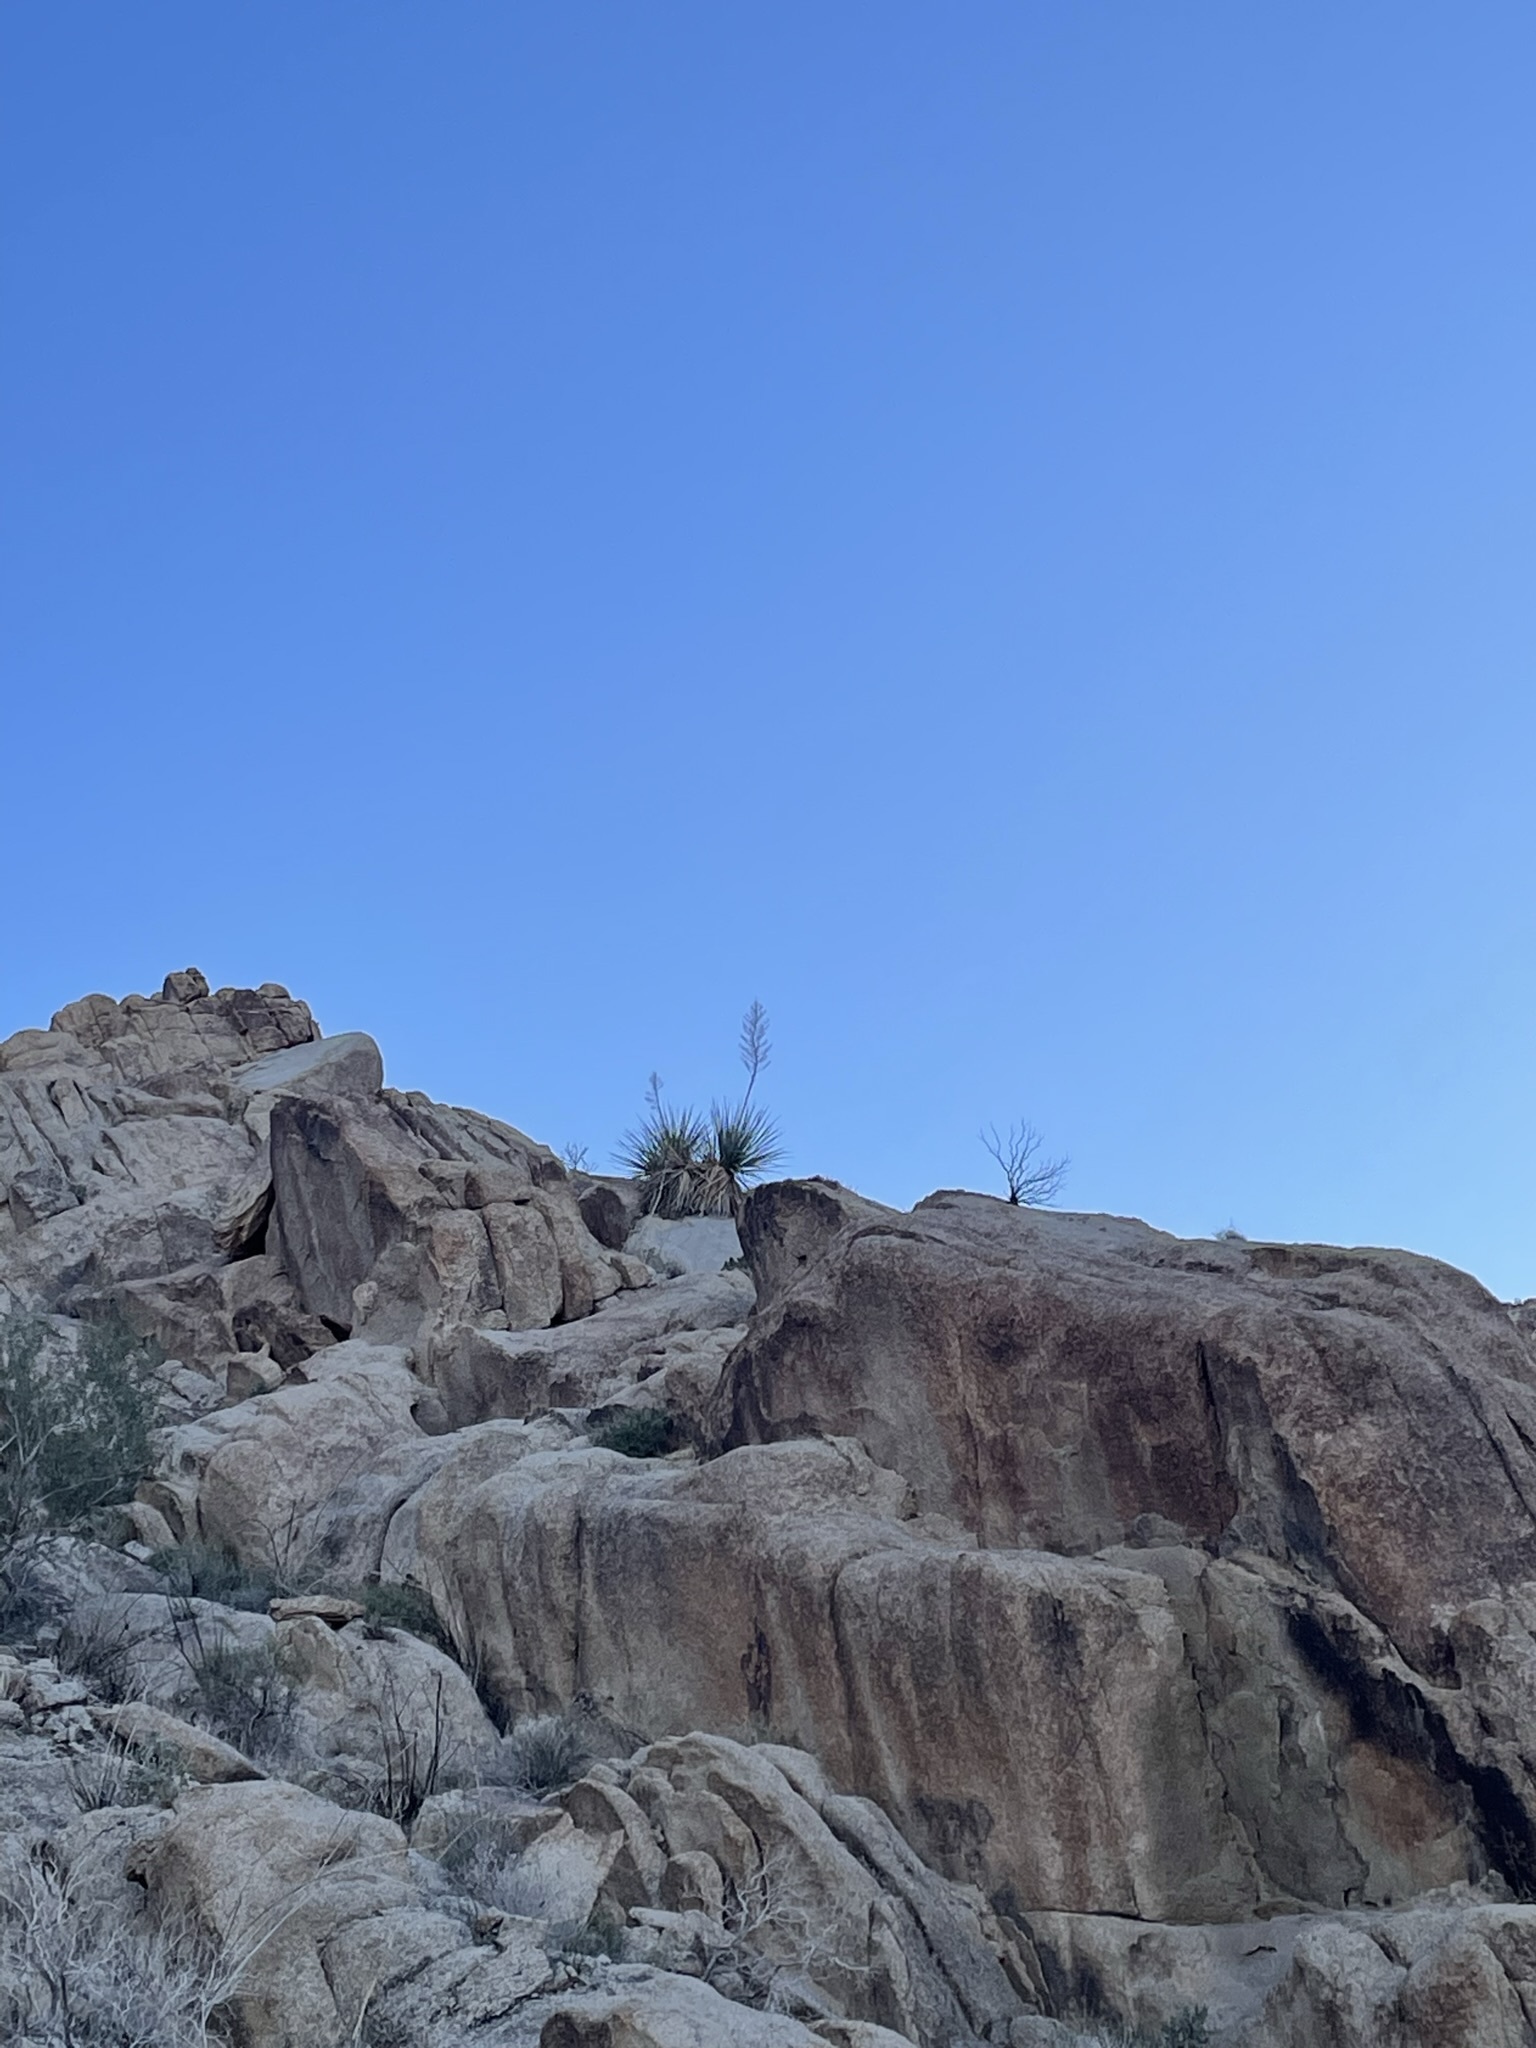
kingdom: Plantae
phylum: Tracheophyta
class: Liliopsida
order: Asparagales
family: Asparagaceae
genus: Nolina
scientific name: Nolina bigelovii
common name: Bigelow bear-grass
